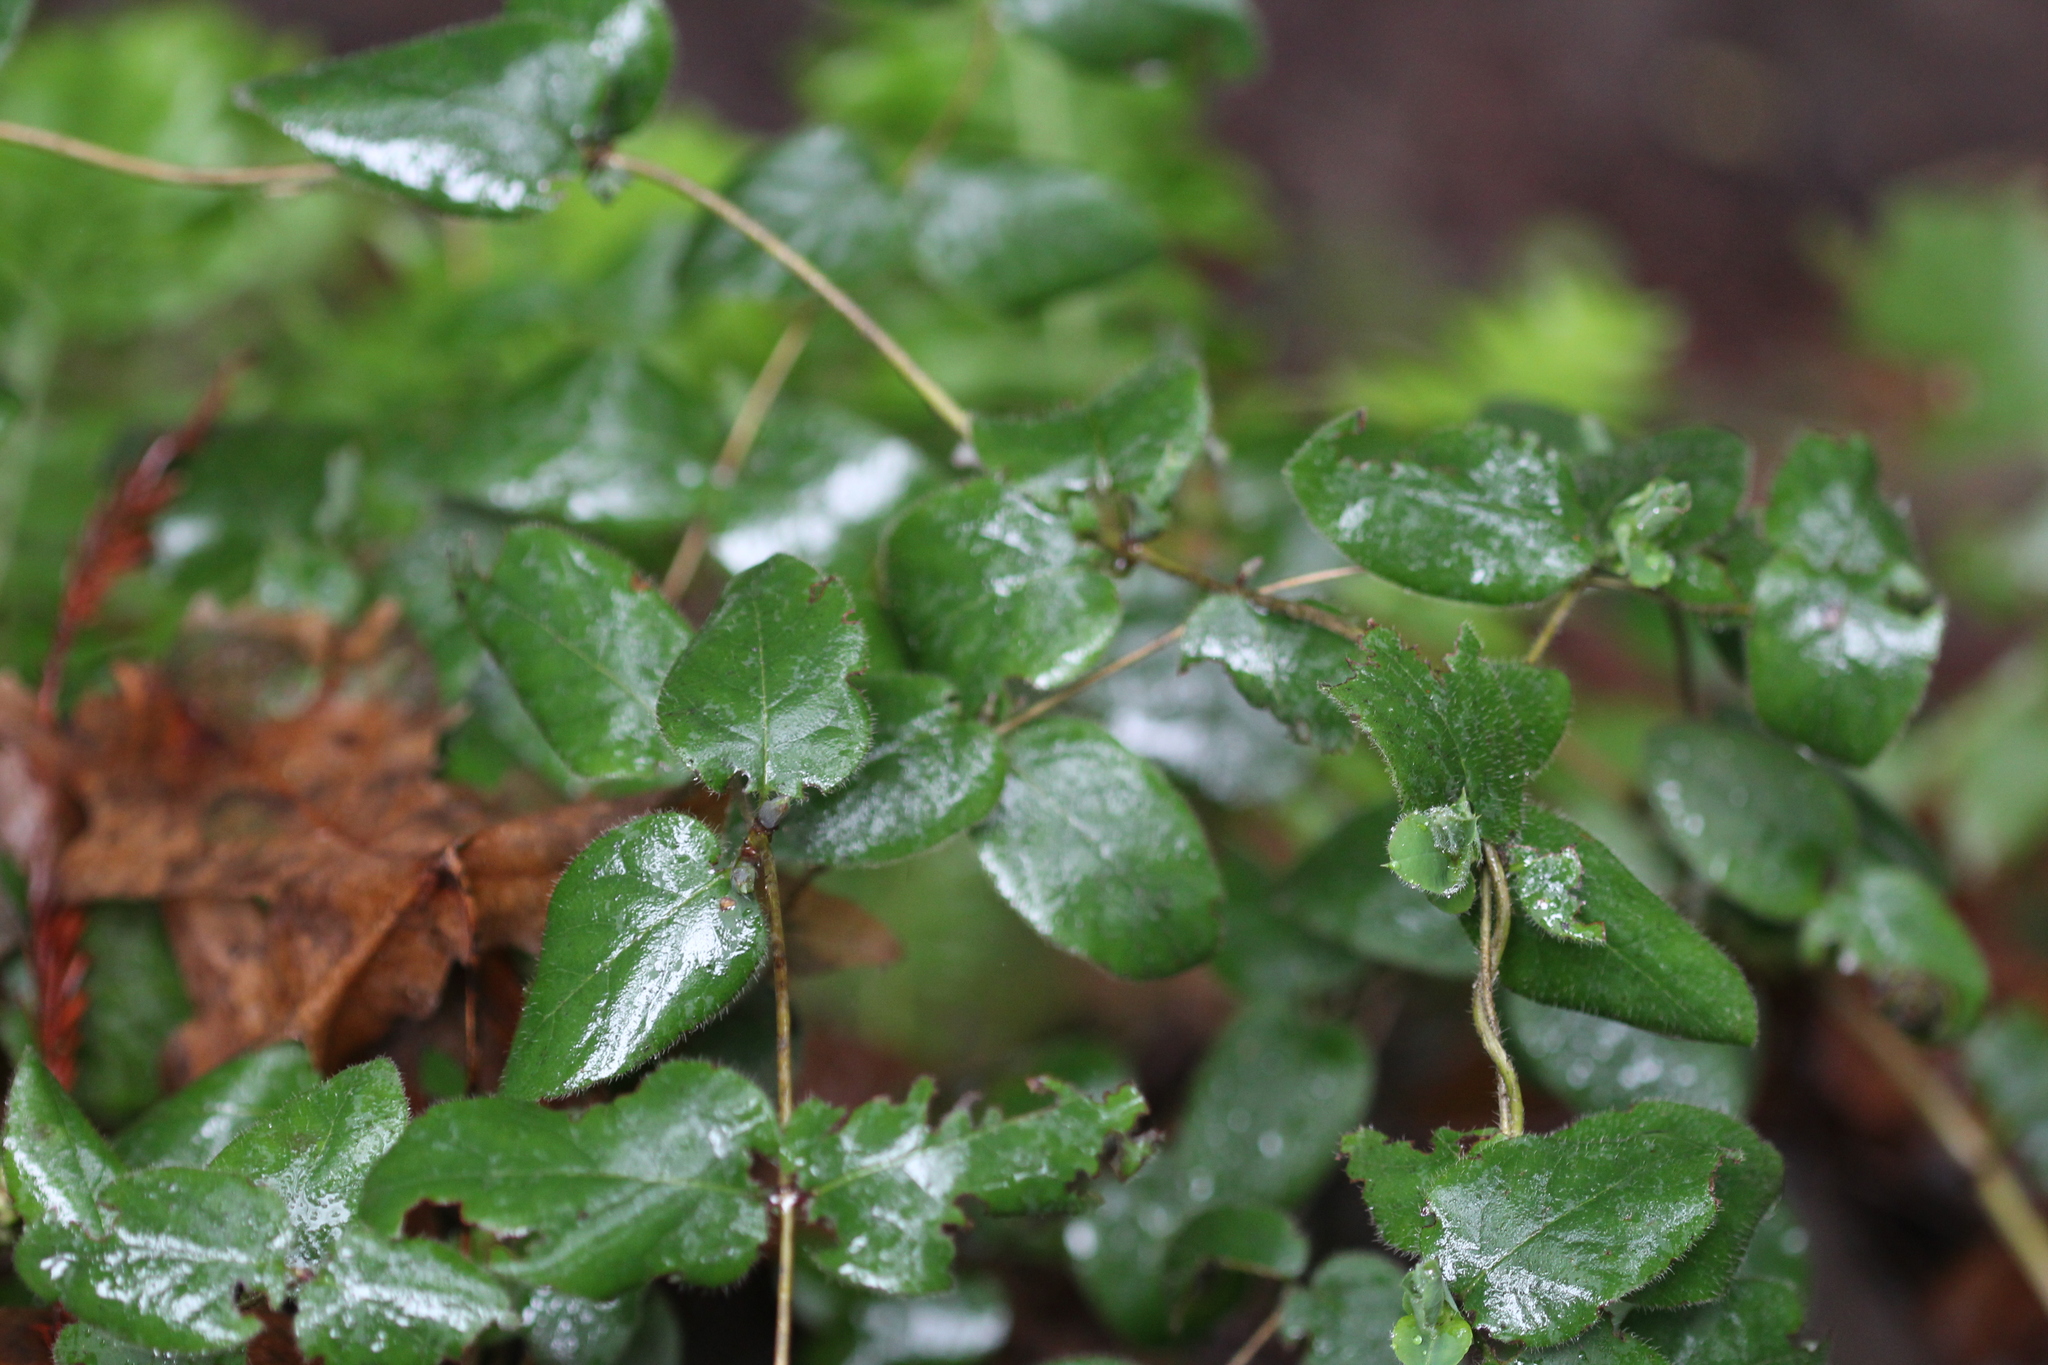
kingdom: Plantae
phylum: Tracheophyta
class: Magnoliopsida
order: Dipsacales
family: Caprifoliaceae
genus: Lonicera
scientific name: Lonicera hispidula
